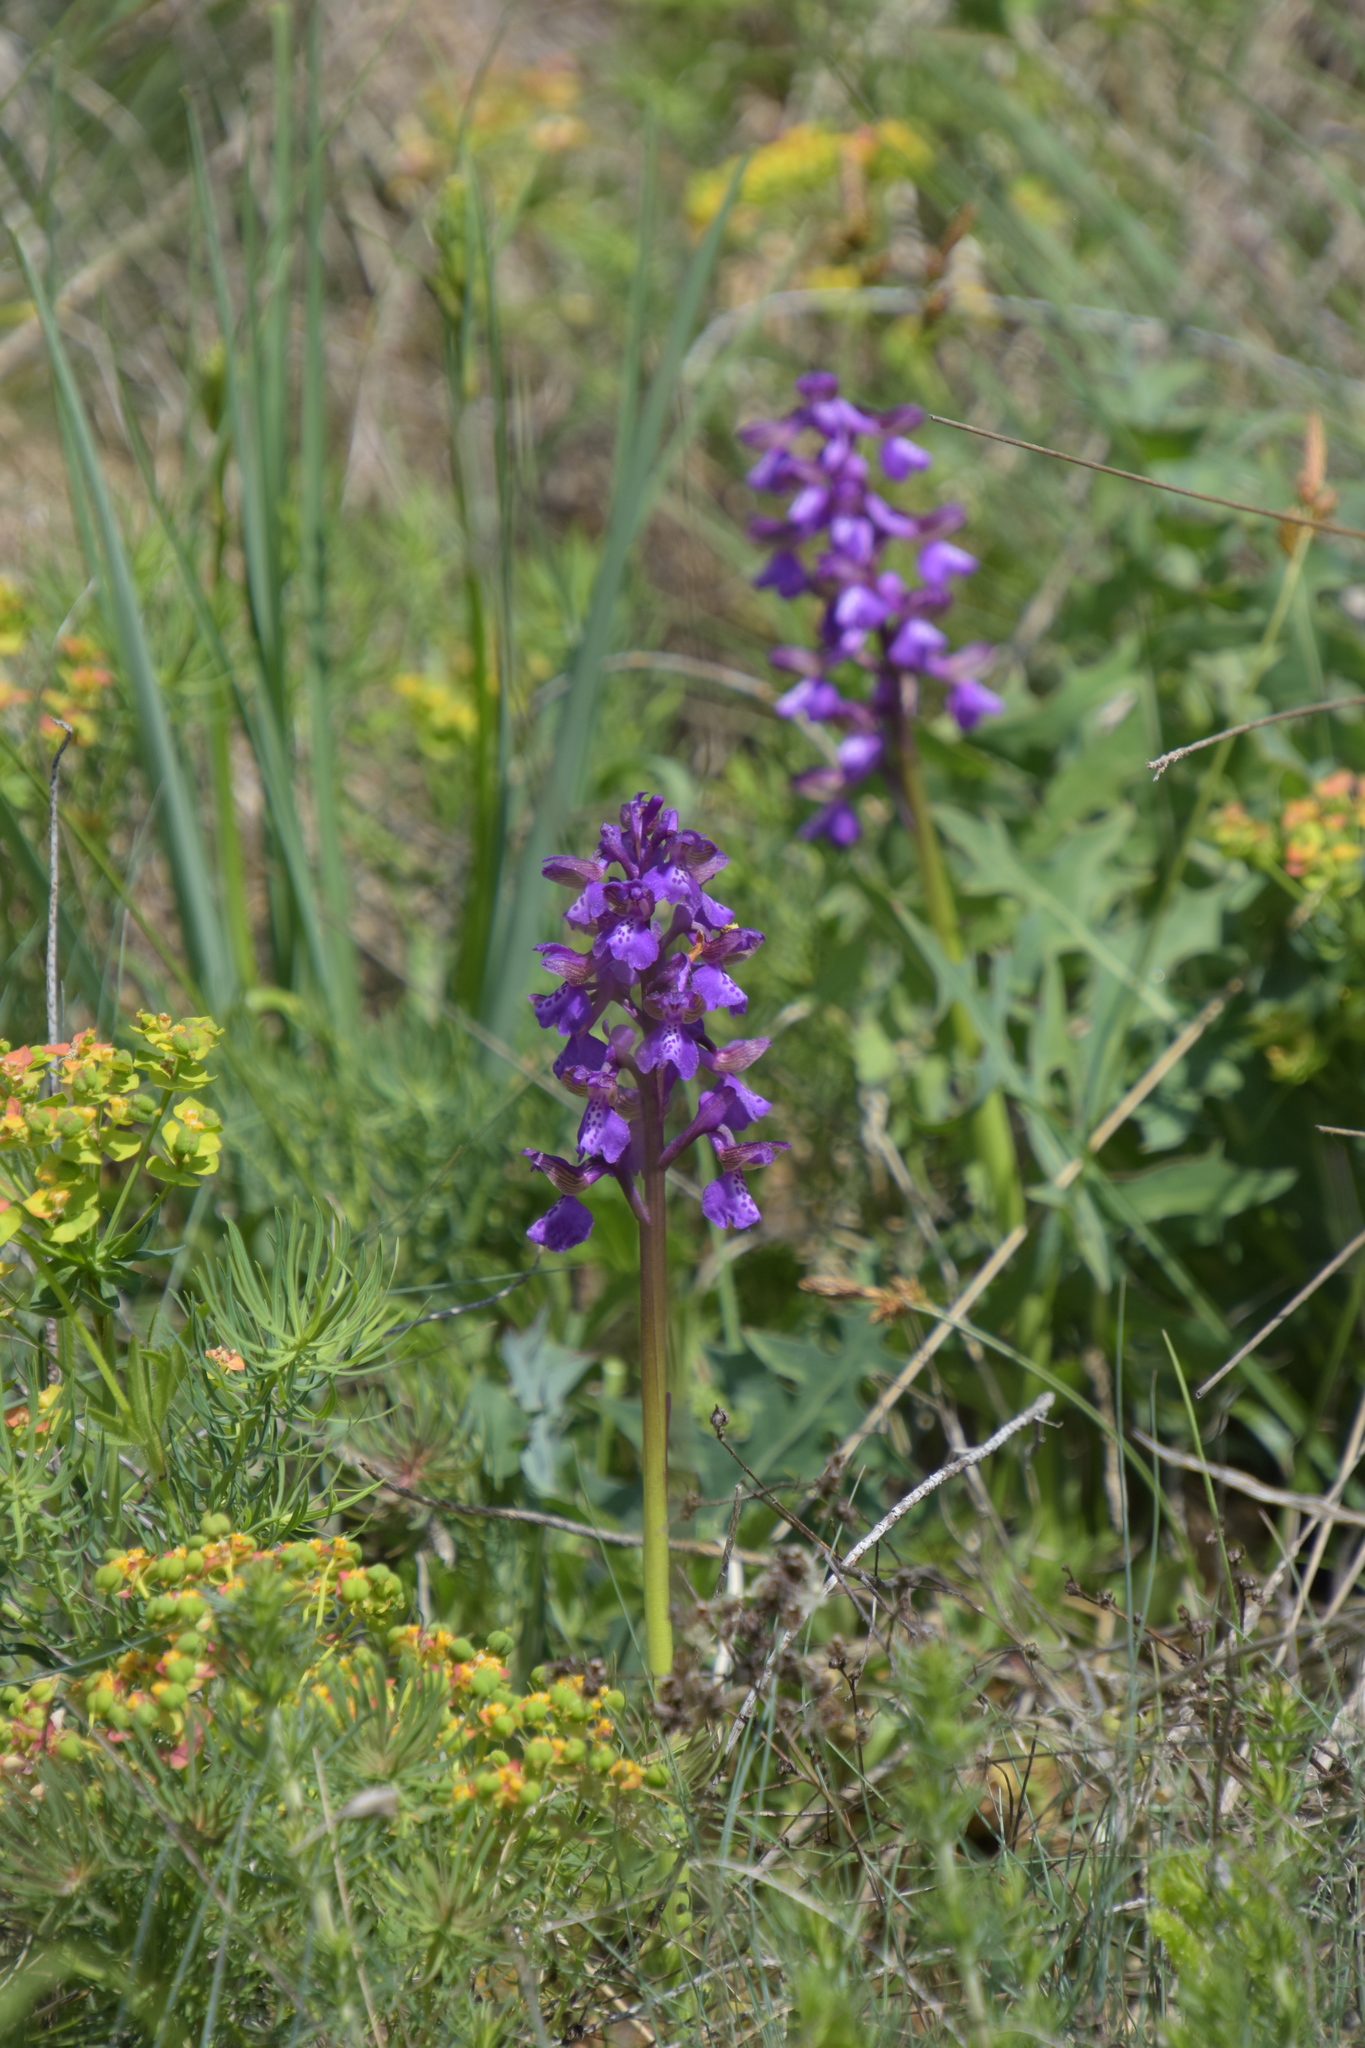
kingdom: Plantae
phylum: Tracheophyta
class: Liliopsida
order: Asparagales
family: Orchidaceae
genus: Anacamptis
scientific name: Anacamptis morio
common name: Green-winged orchid
